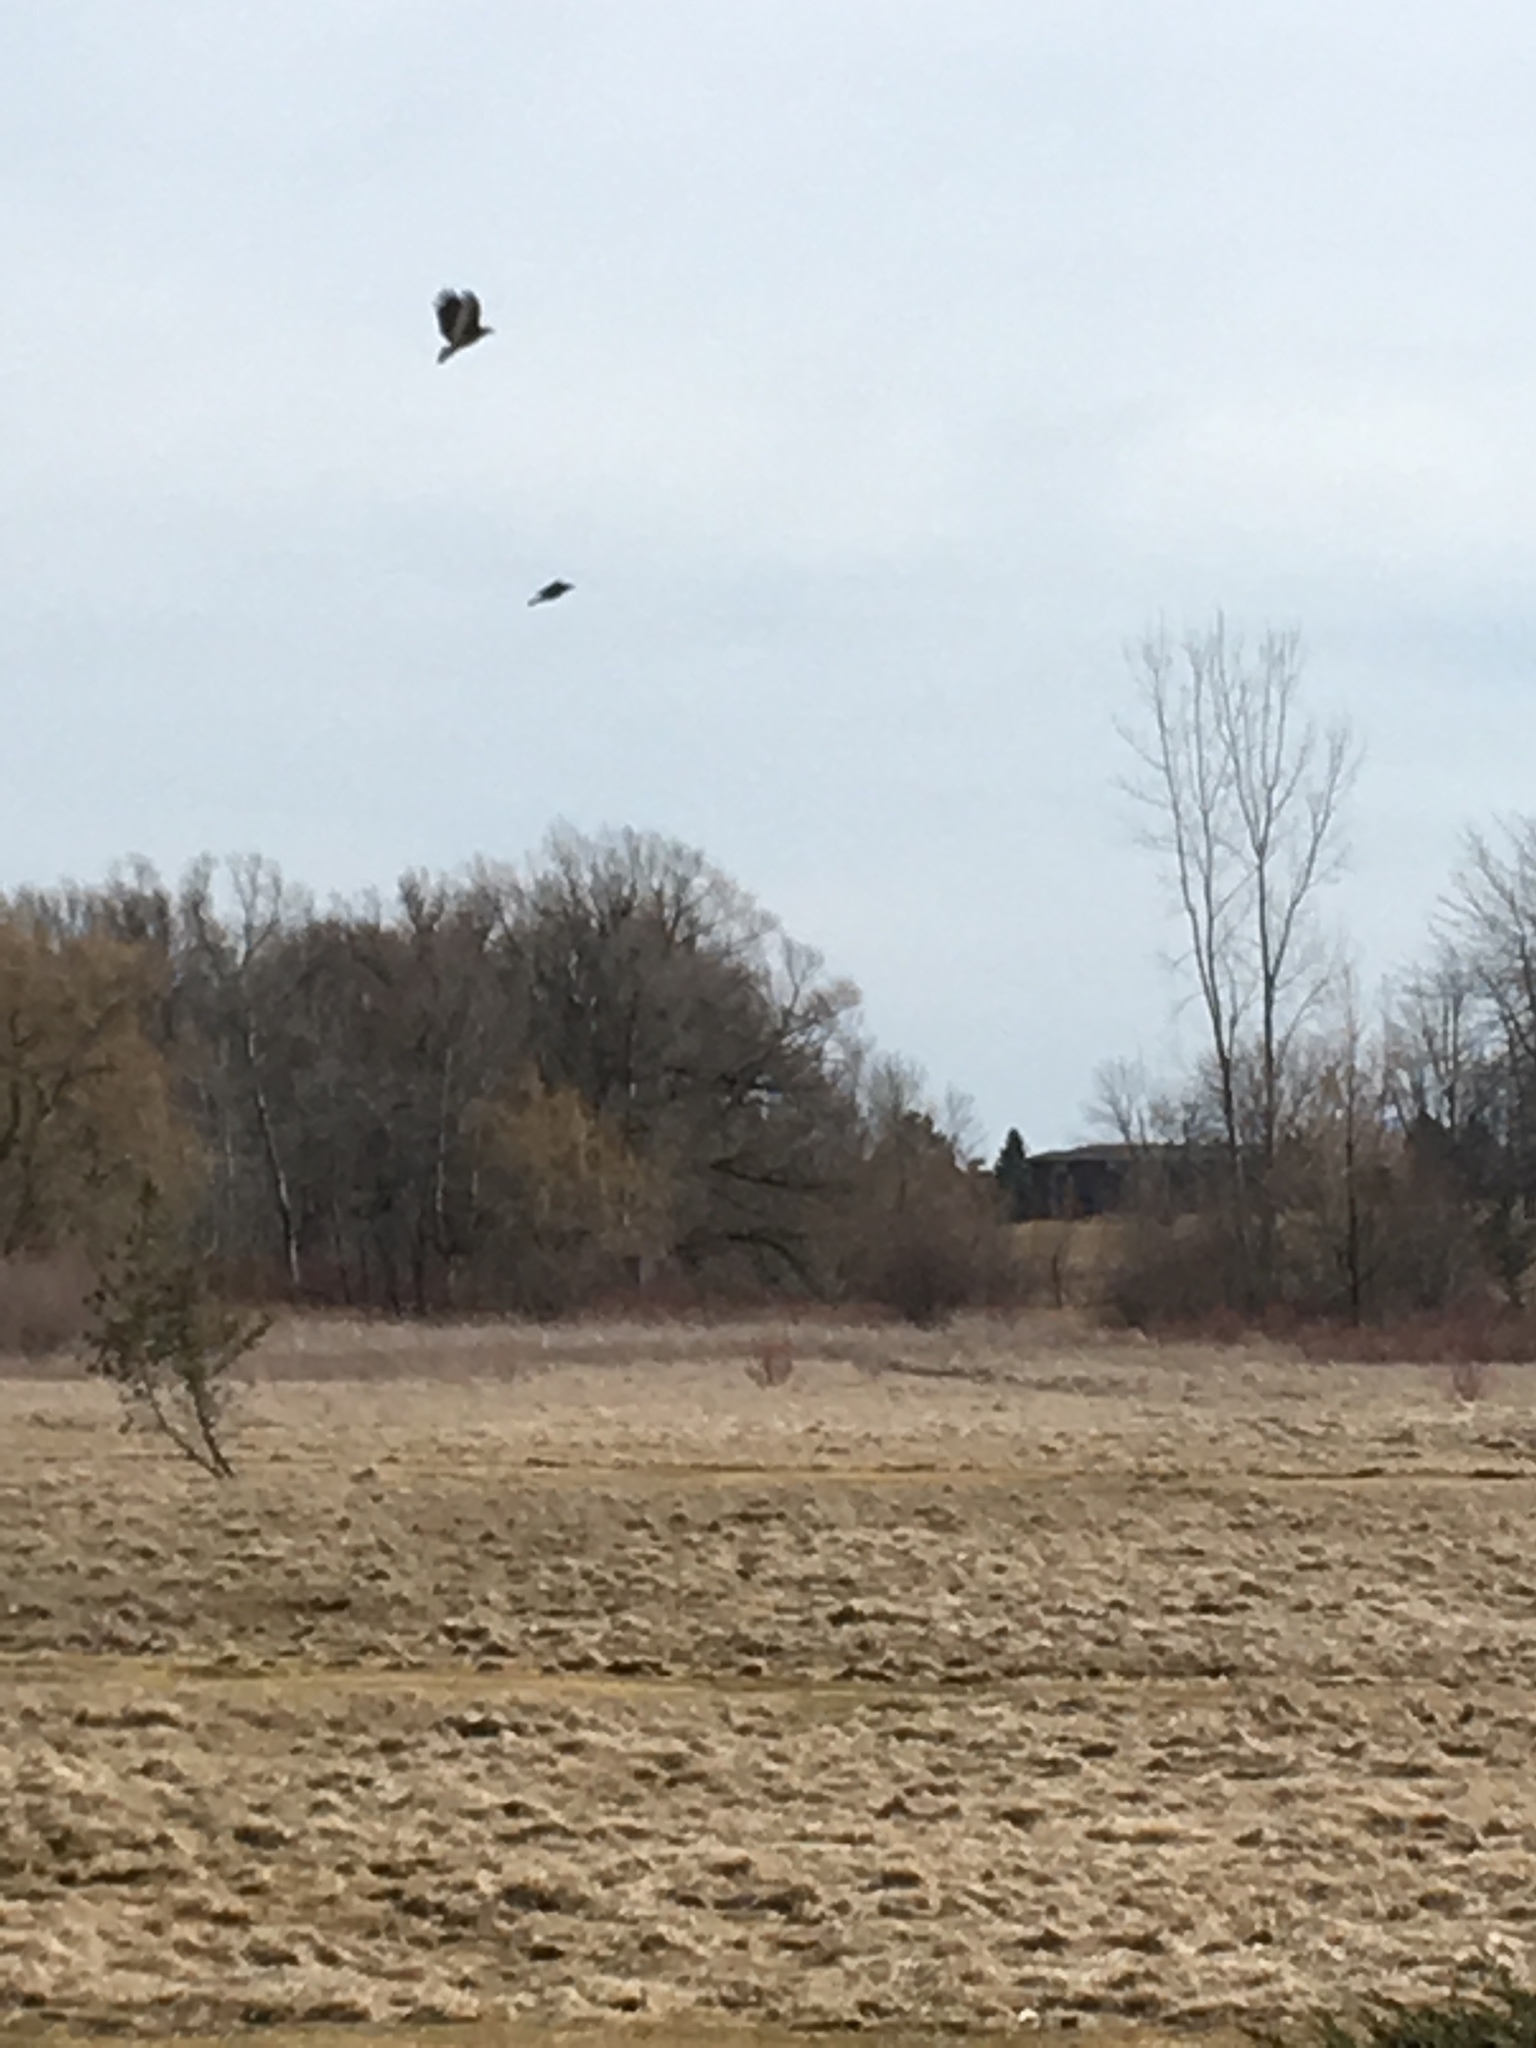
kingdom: Animalia
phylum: Chordata
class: Aves
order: Accipitriformes
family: Cathartidae
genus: Cathartes
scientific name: Cathartes aura
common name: Turkey vulture
